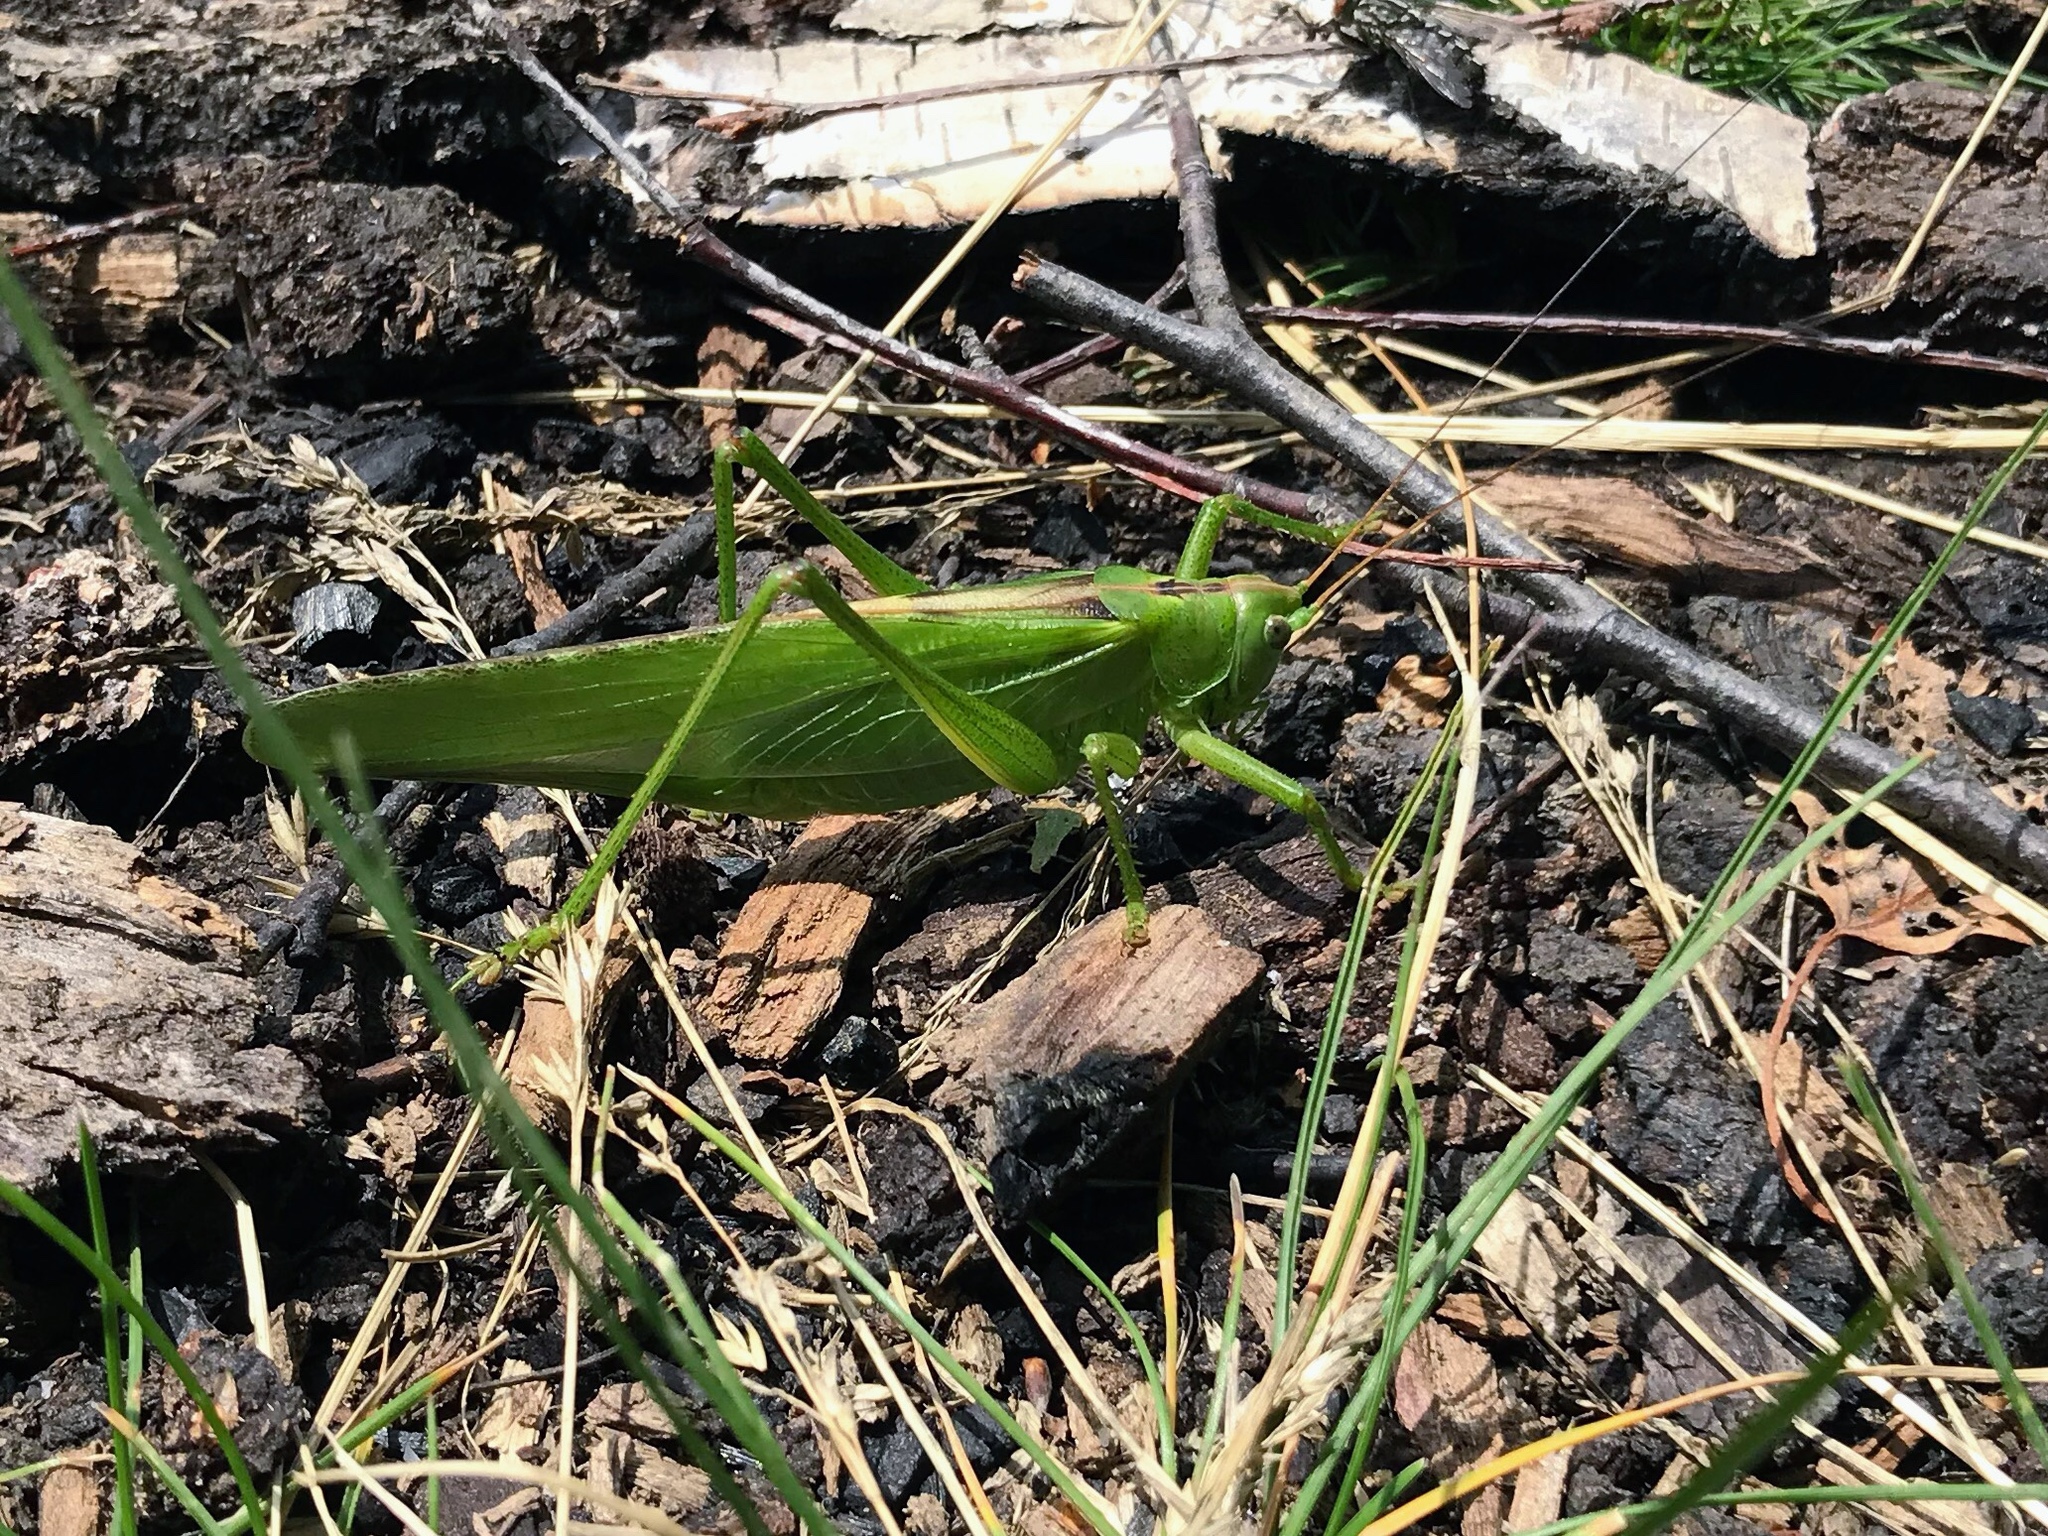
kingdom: Animalia
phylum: Arthropoda
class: Insecta
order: Orthoptera
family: Tettigoniidae
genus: Tettigonia
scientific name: Tettigonia viridissima
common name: Great green bush-cricket
